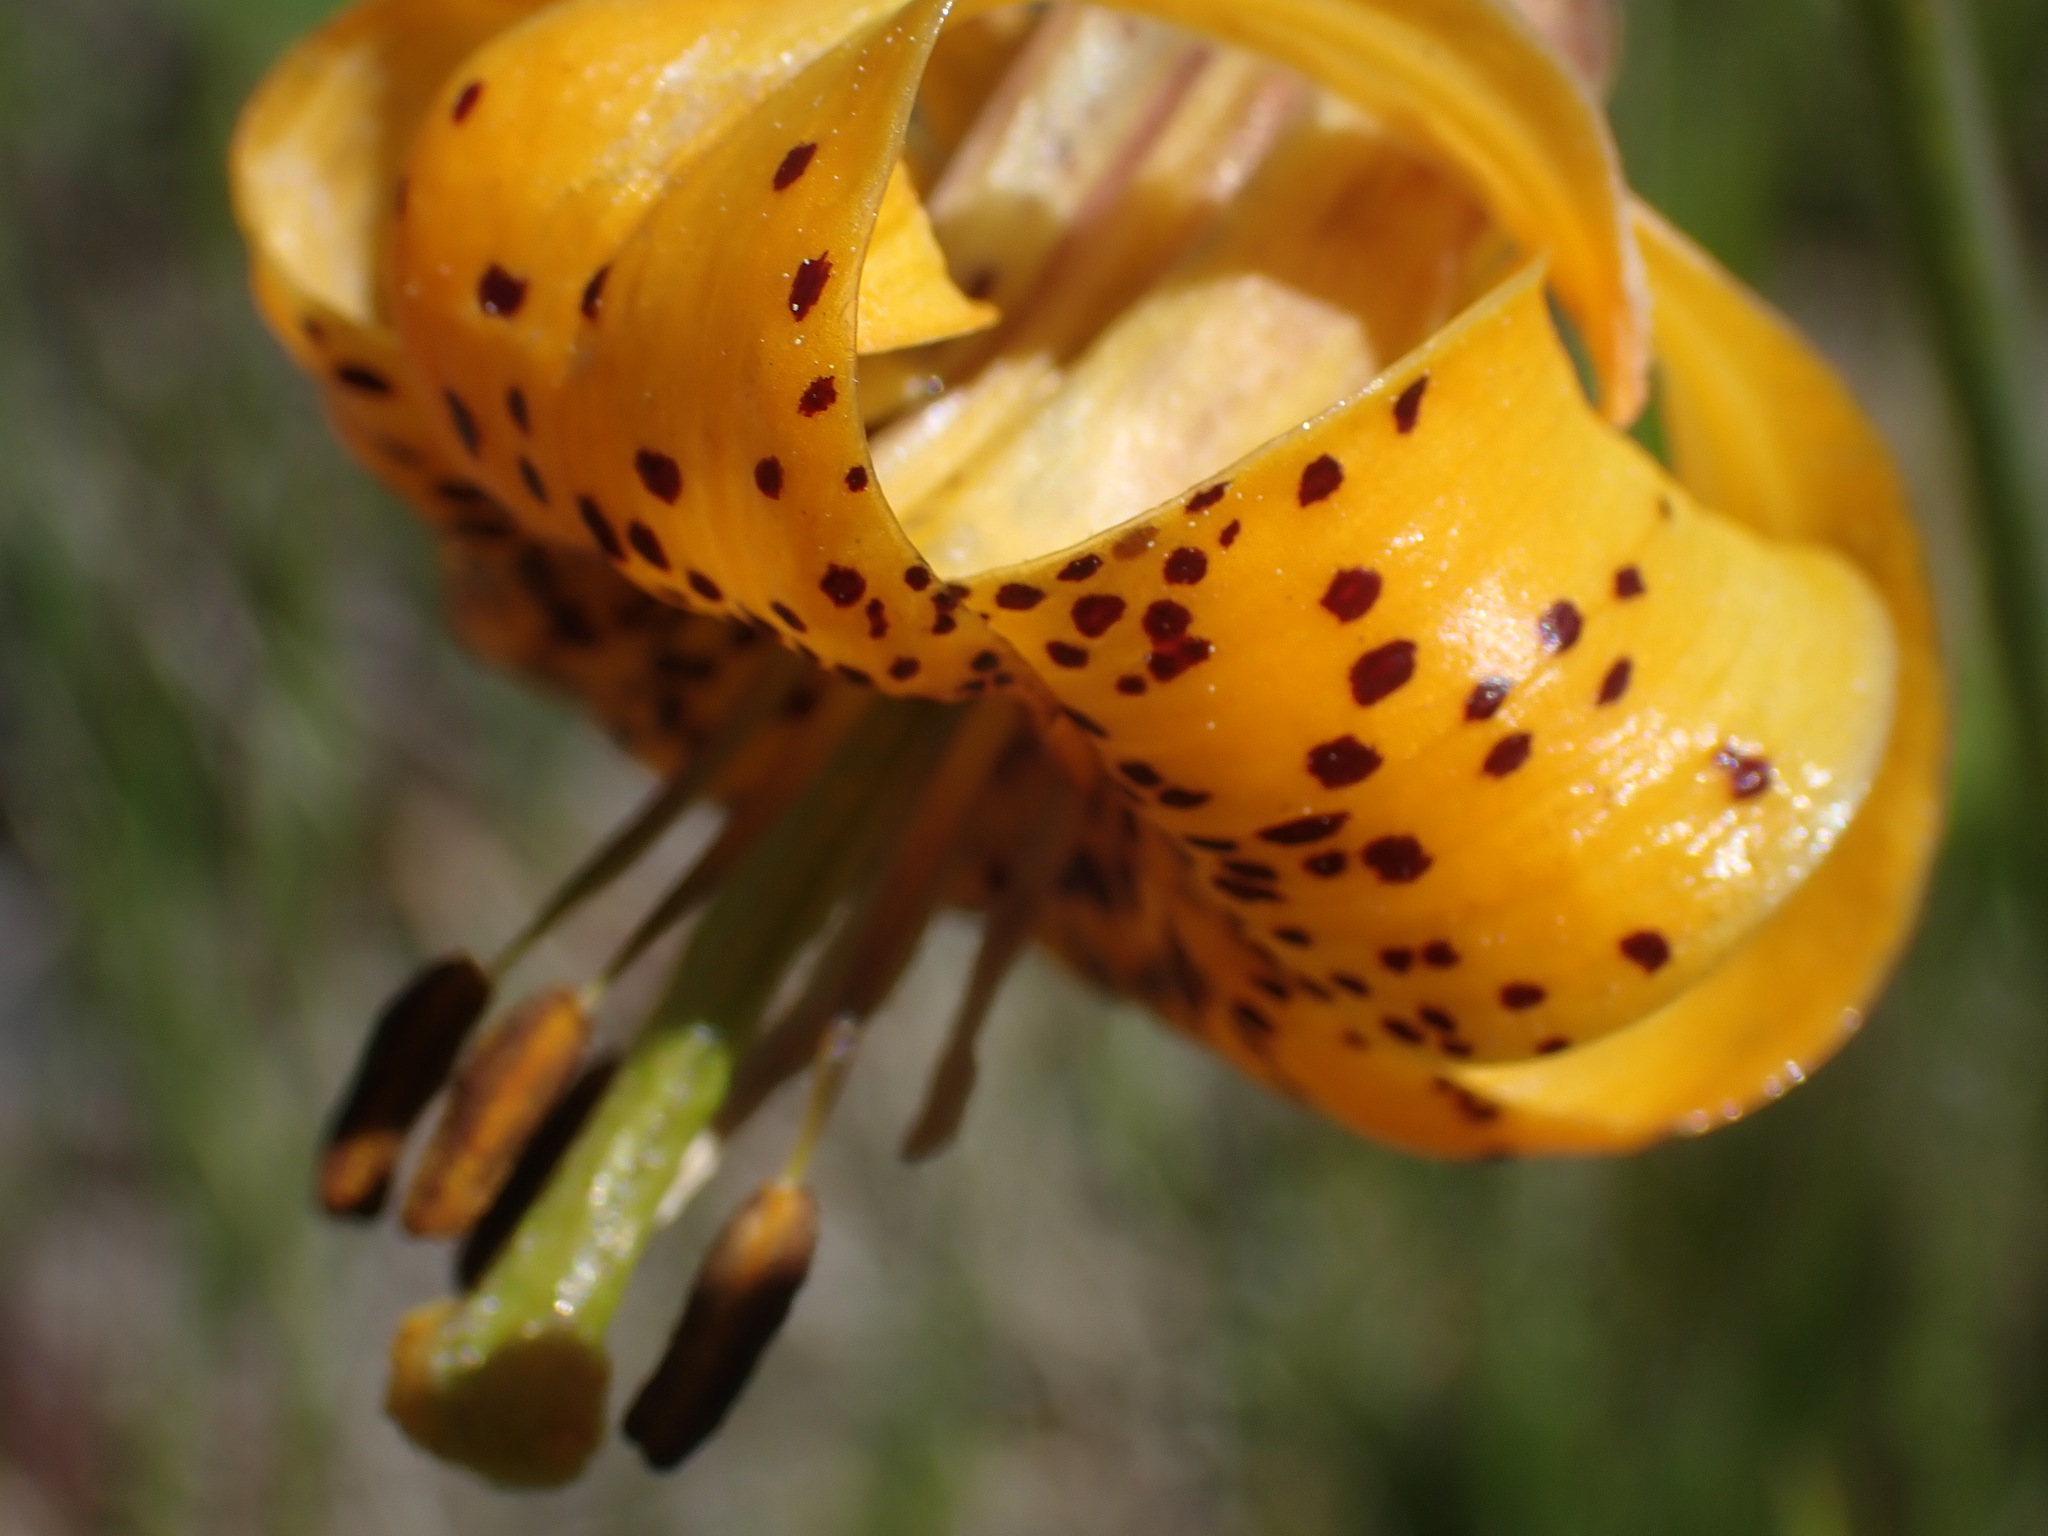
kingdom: Plantae
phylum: Tracheophyta
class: Liliopsida
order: Liliales
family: Liliaceae
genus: Lilium
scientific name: Lilium columbianum
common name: Columbia lily
